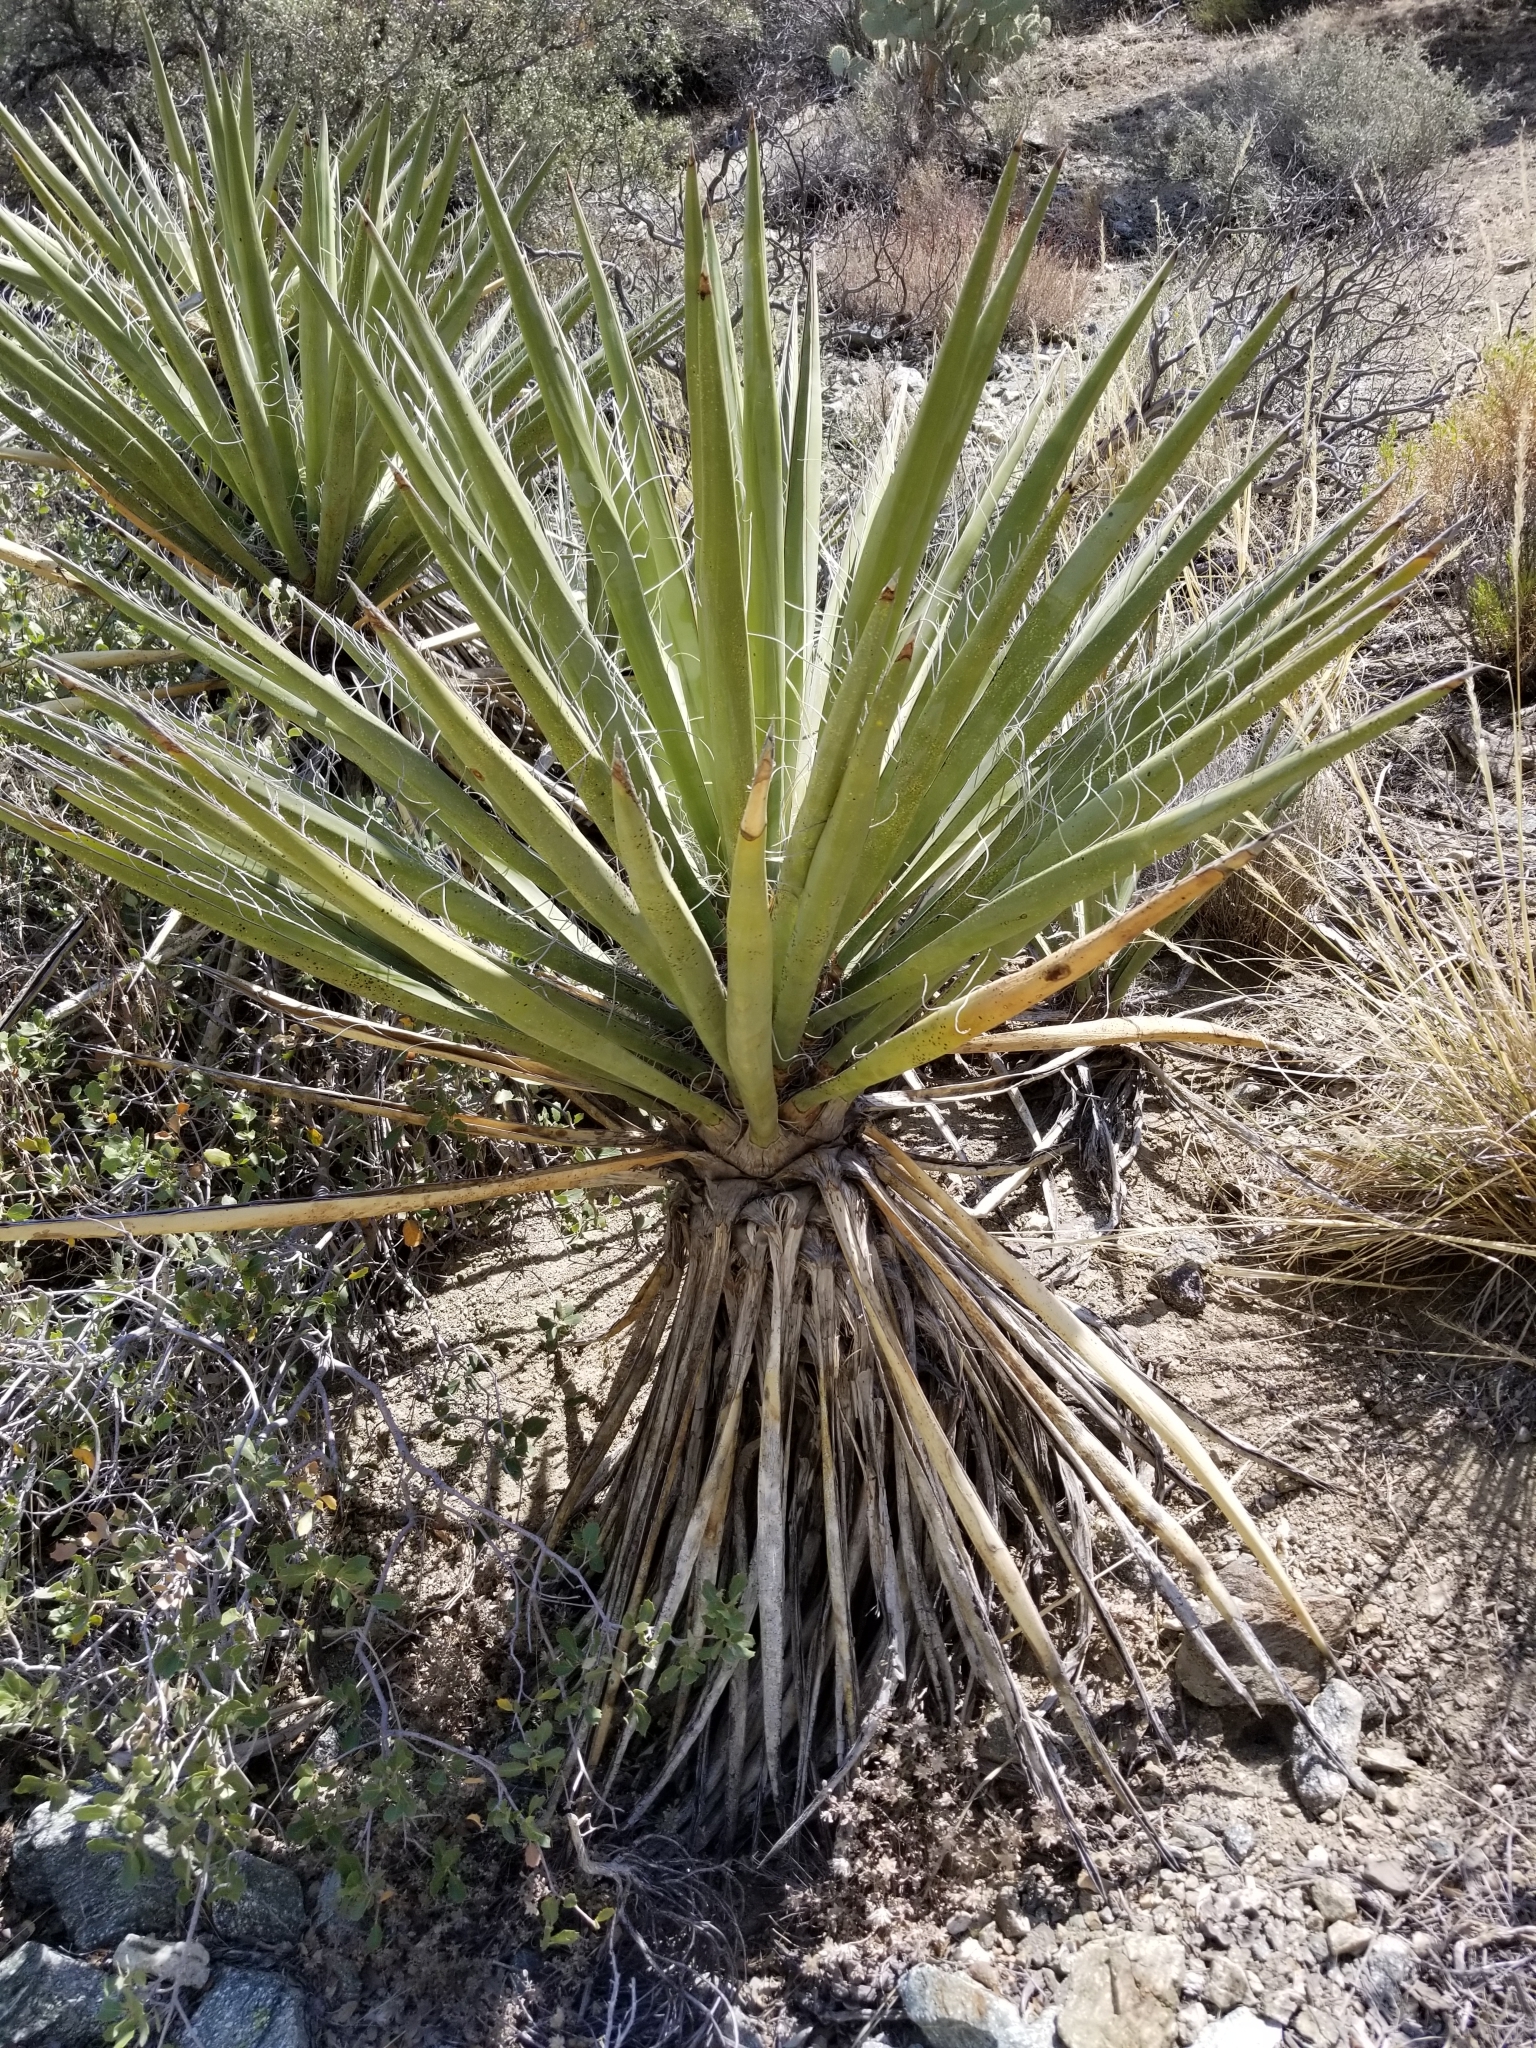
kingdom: Plantae
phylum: Tracheophyta
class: Liliopsida
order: Asparagales
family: Asparagaceae
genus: Yucca
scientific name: Yucca schidigera
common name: Mojave yucca
